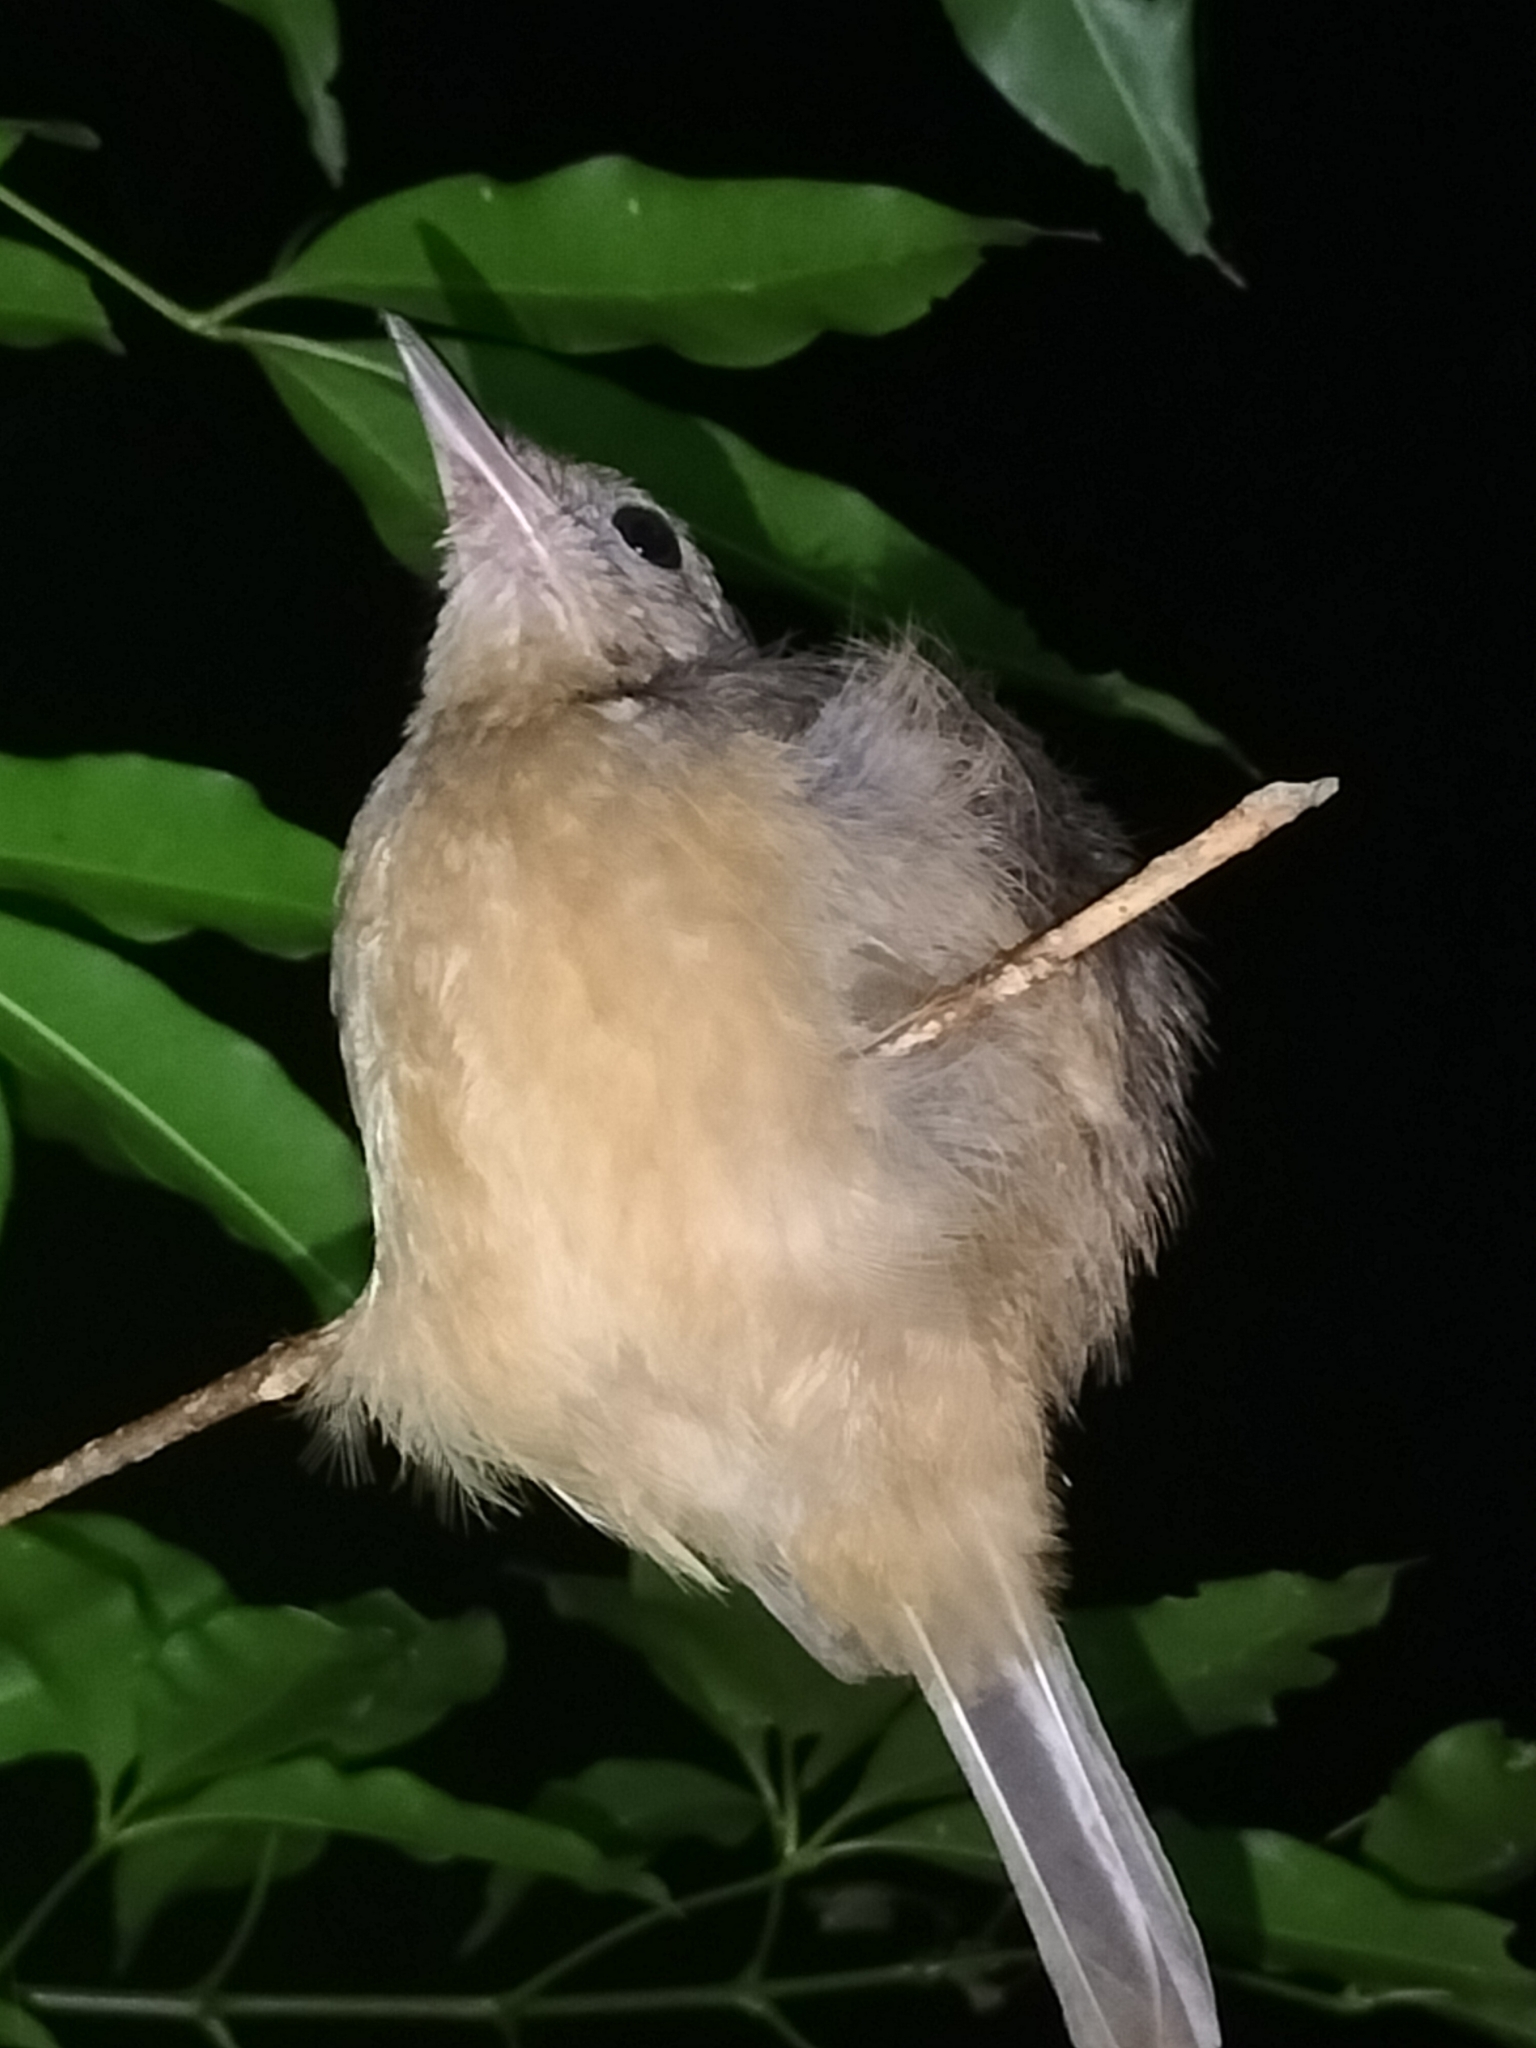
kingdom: Animalia
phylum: Chordata
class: Aves
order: Passeriformes
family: Pachycephalidae
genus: Colluricincla
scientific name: Colluricincla rufogaster
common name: Rufous shrikethrush
